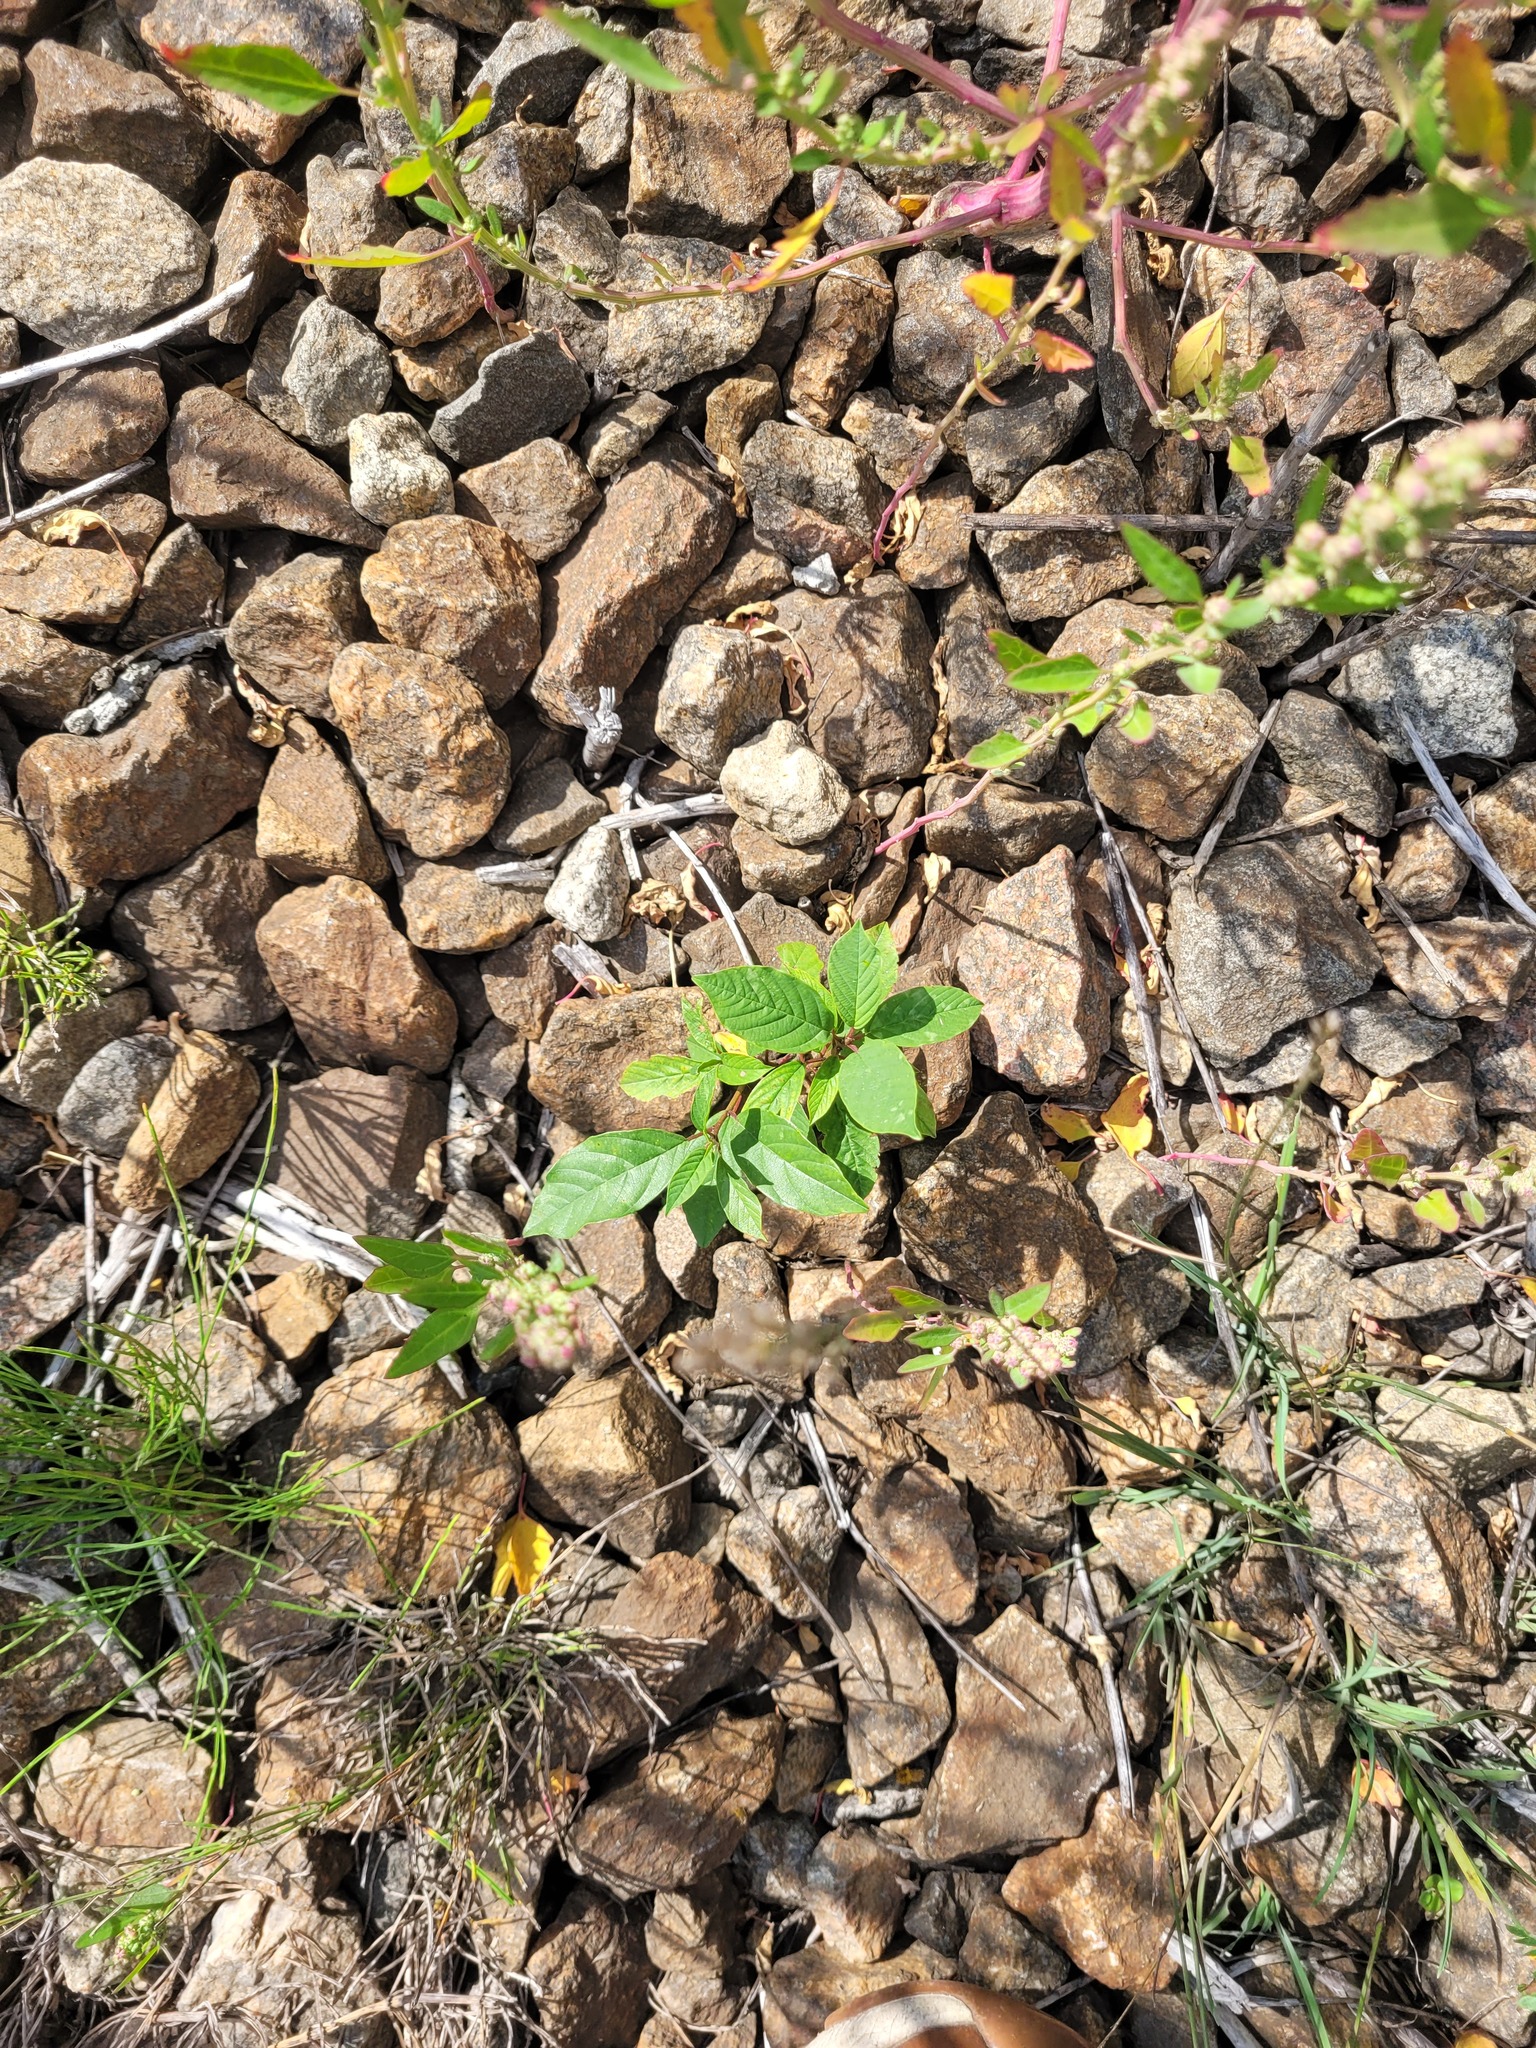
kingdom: Plantae
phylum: Tracheophyta
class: Magnoliopsida
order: Rosales
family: Rhamnaceae
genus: Frangula
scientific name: Frangula alnus
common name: Alder buckthorn
